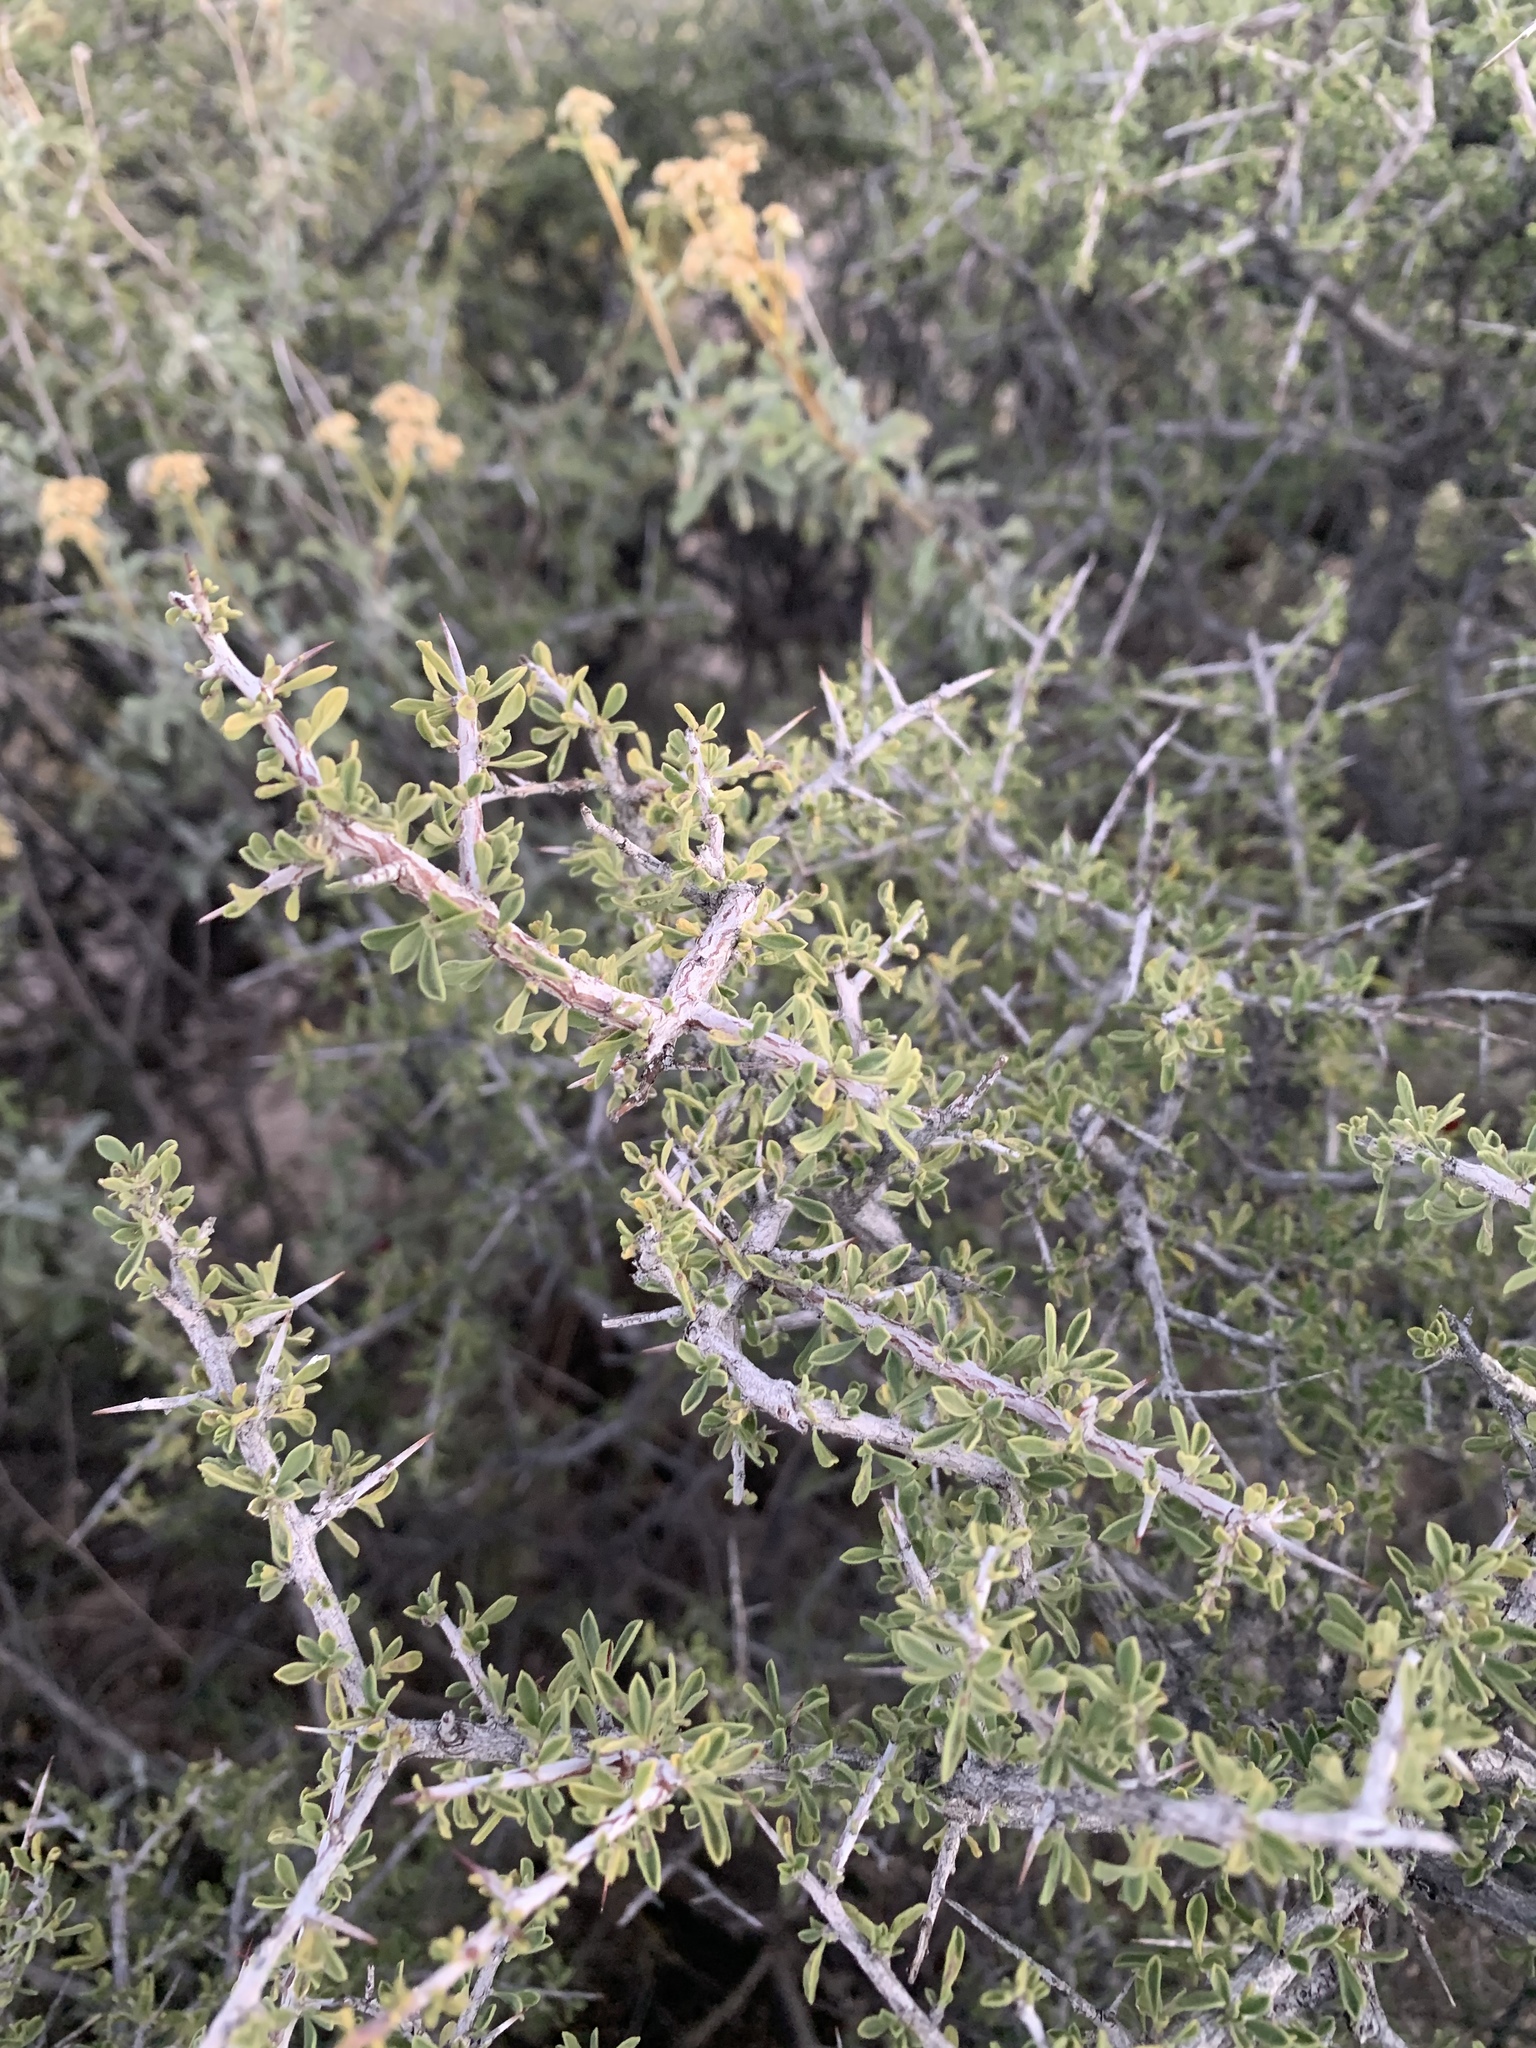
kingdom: Plantae
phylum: Tracheophyta
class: Magnoliopsida
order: Rosales
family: Rhamnaceae
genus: Condalia
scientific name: Condalia warnockii
